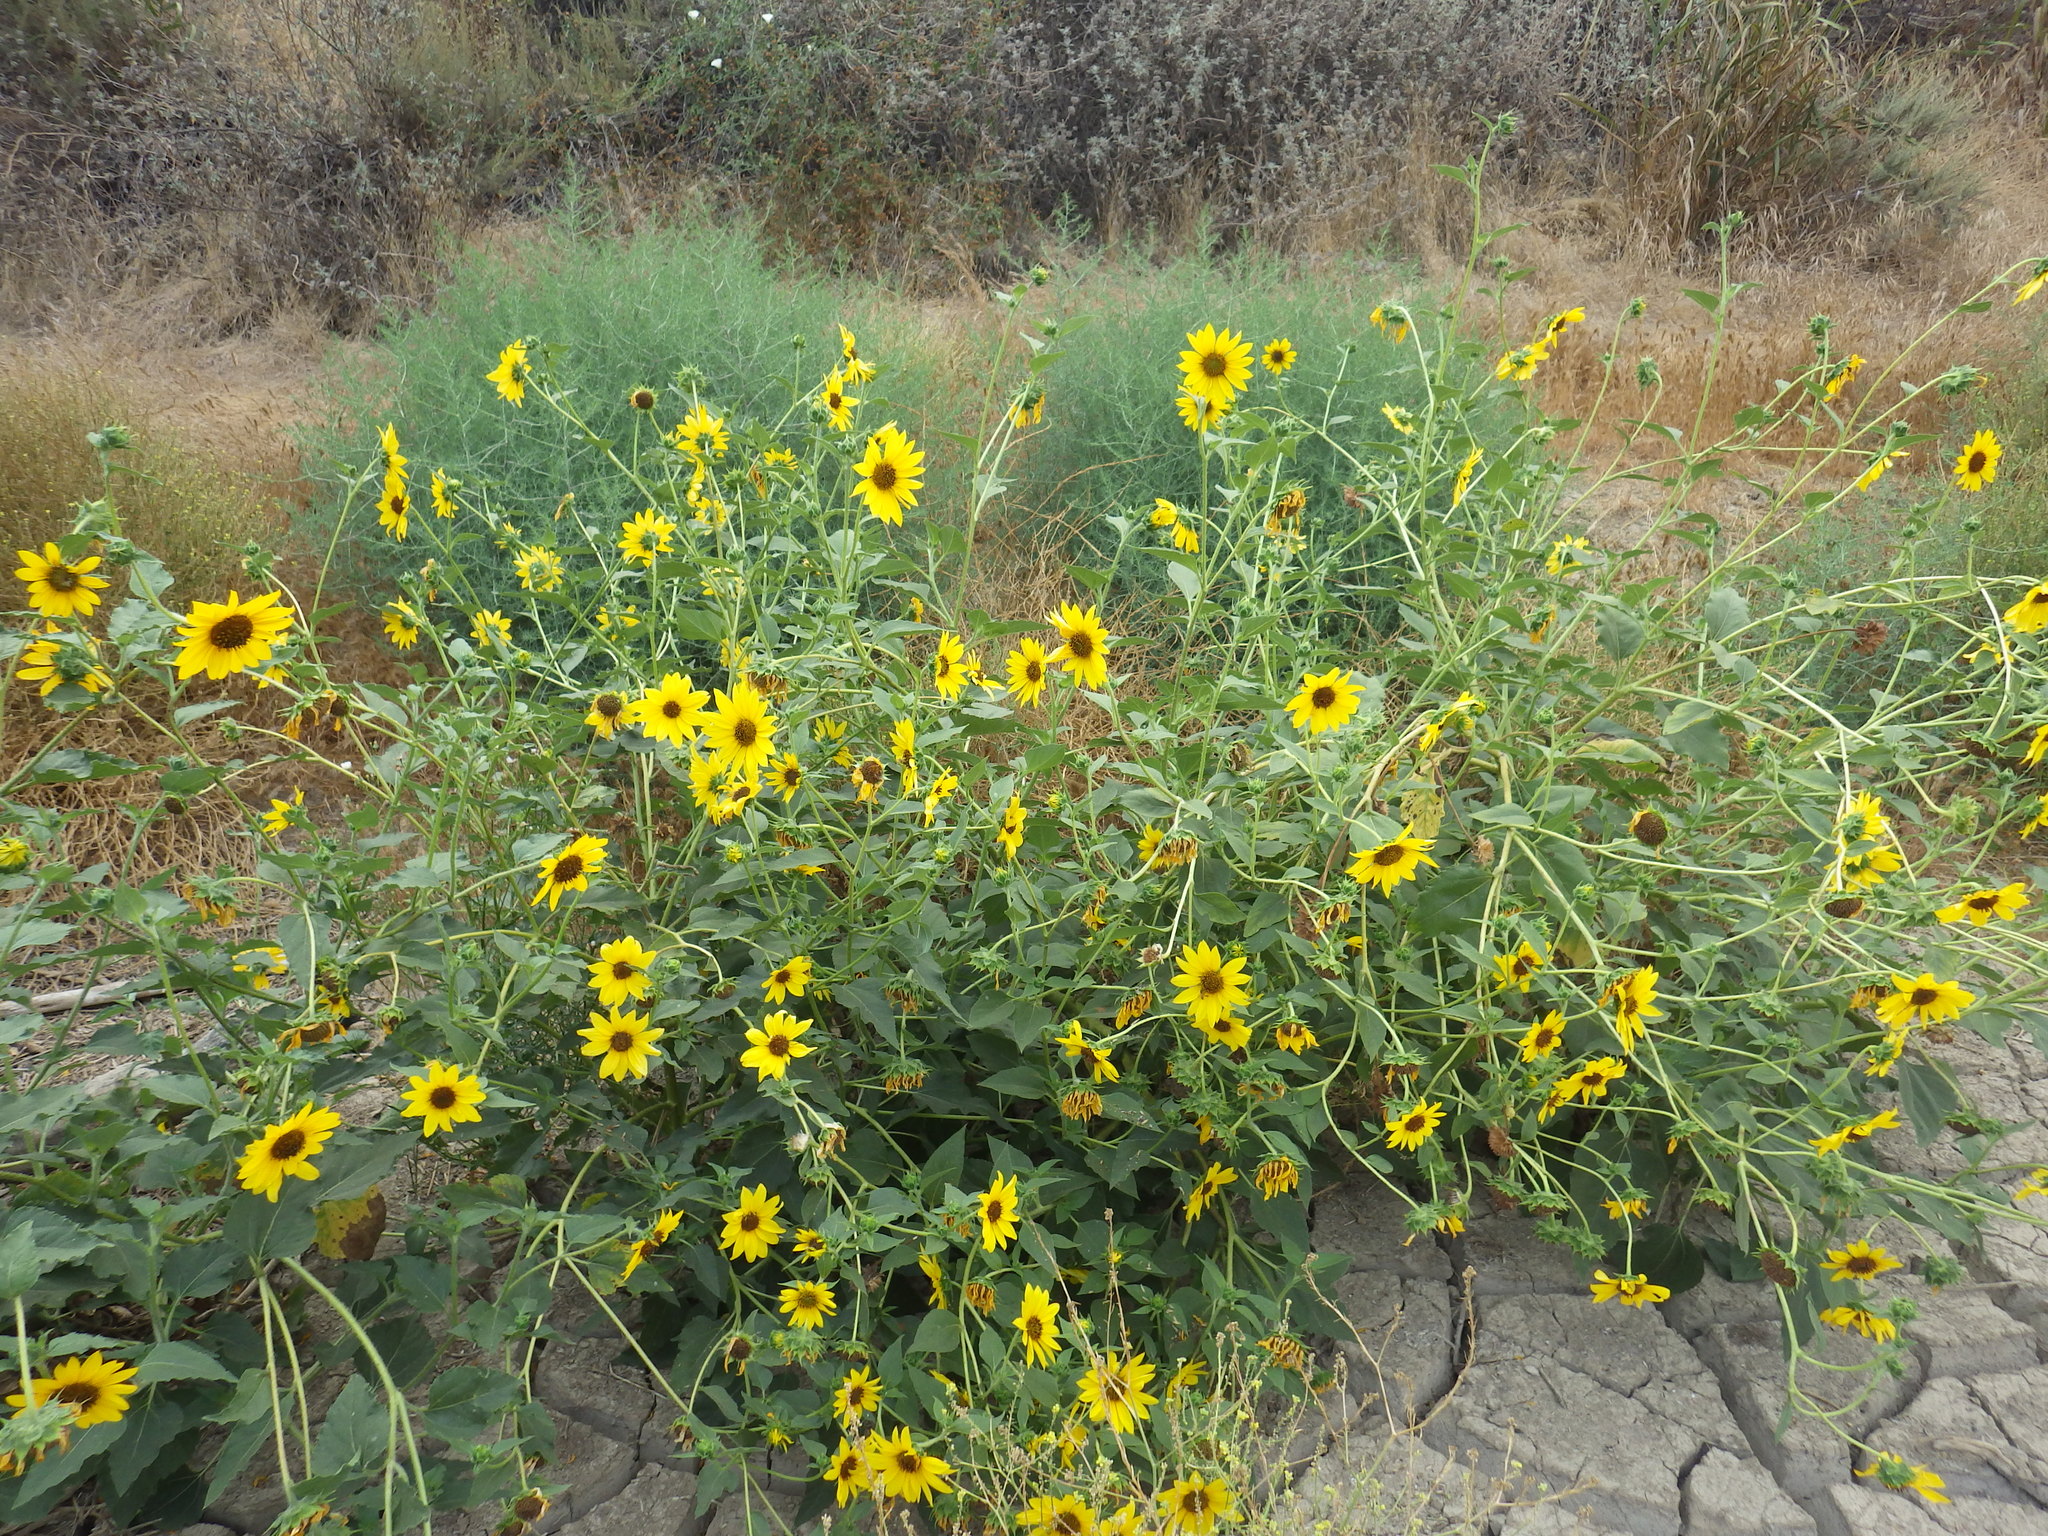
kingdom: Plantae
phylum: Tracheophyta
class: Magnoliopsida
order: Asterales
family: Asteraceae
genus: Helianthus
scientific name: Helianthus annuus
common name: Sunflower
